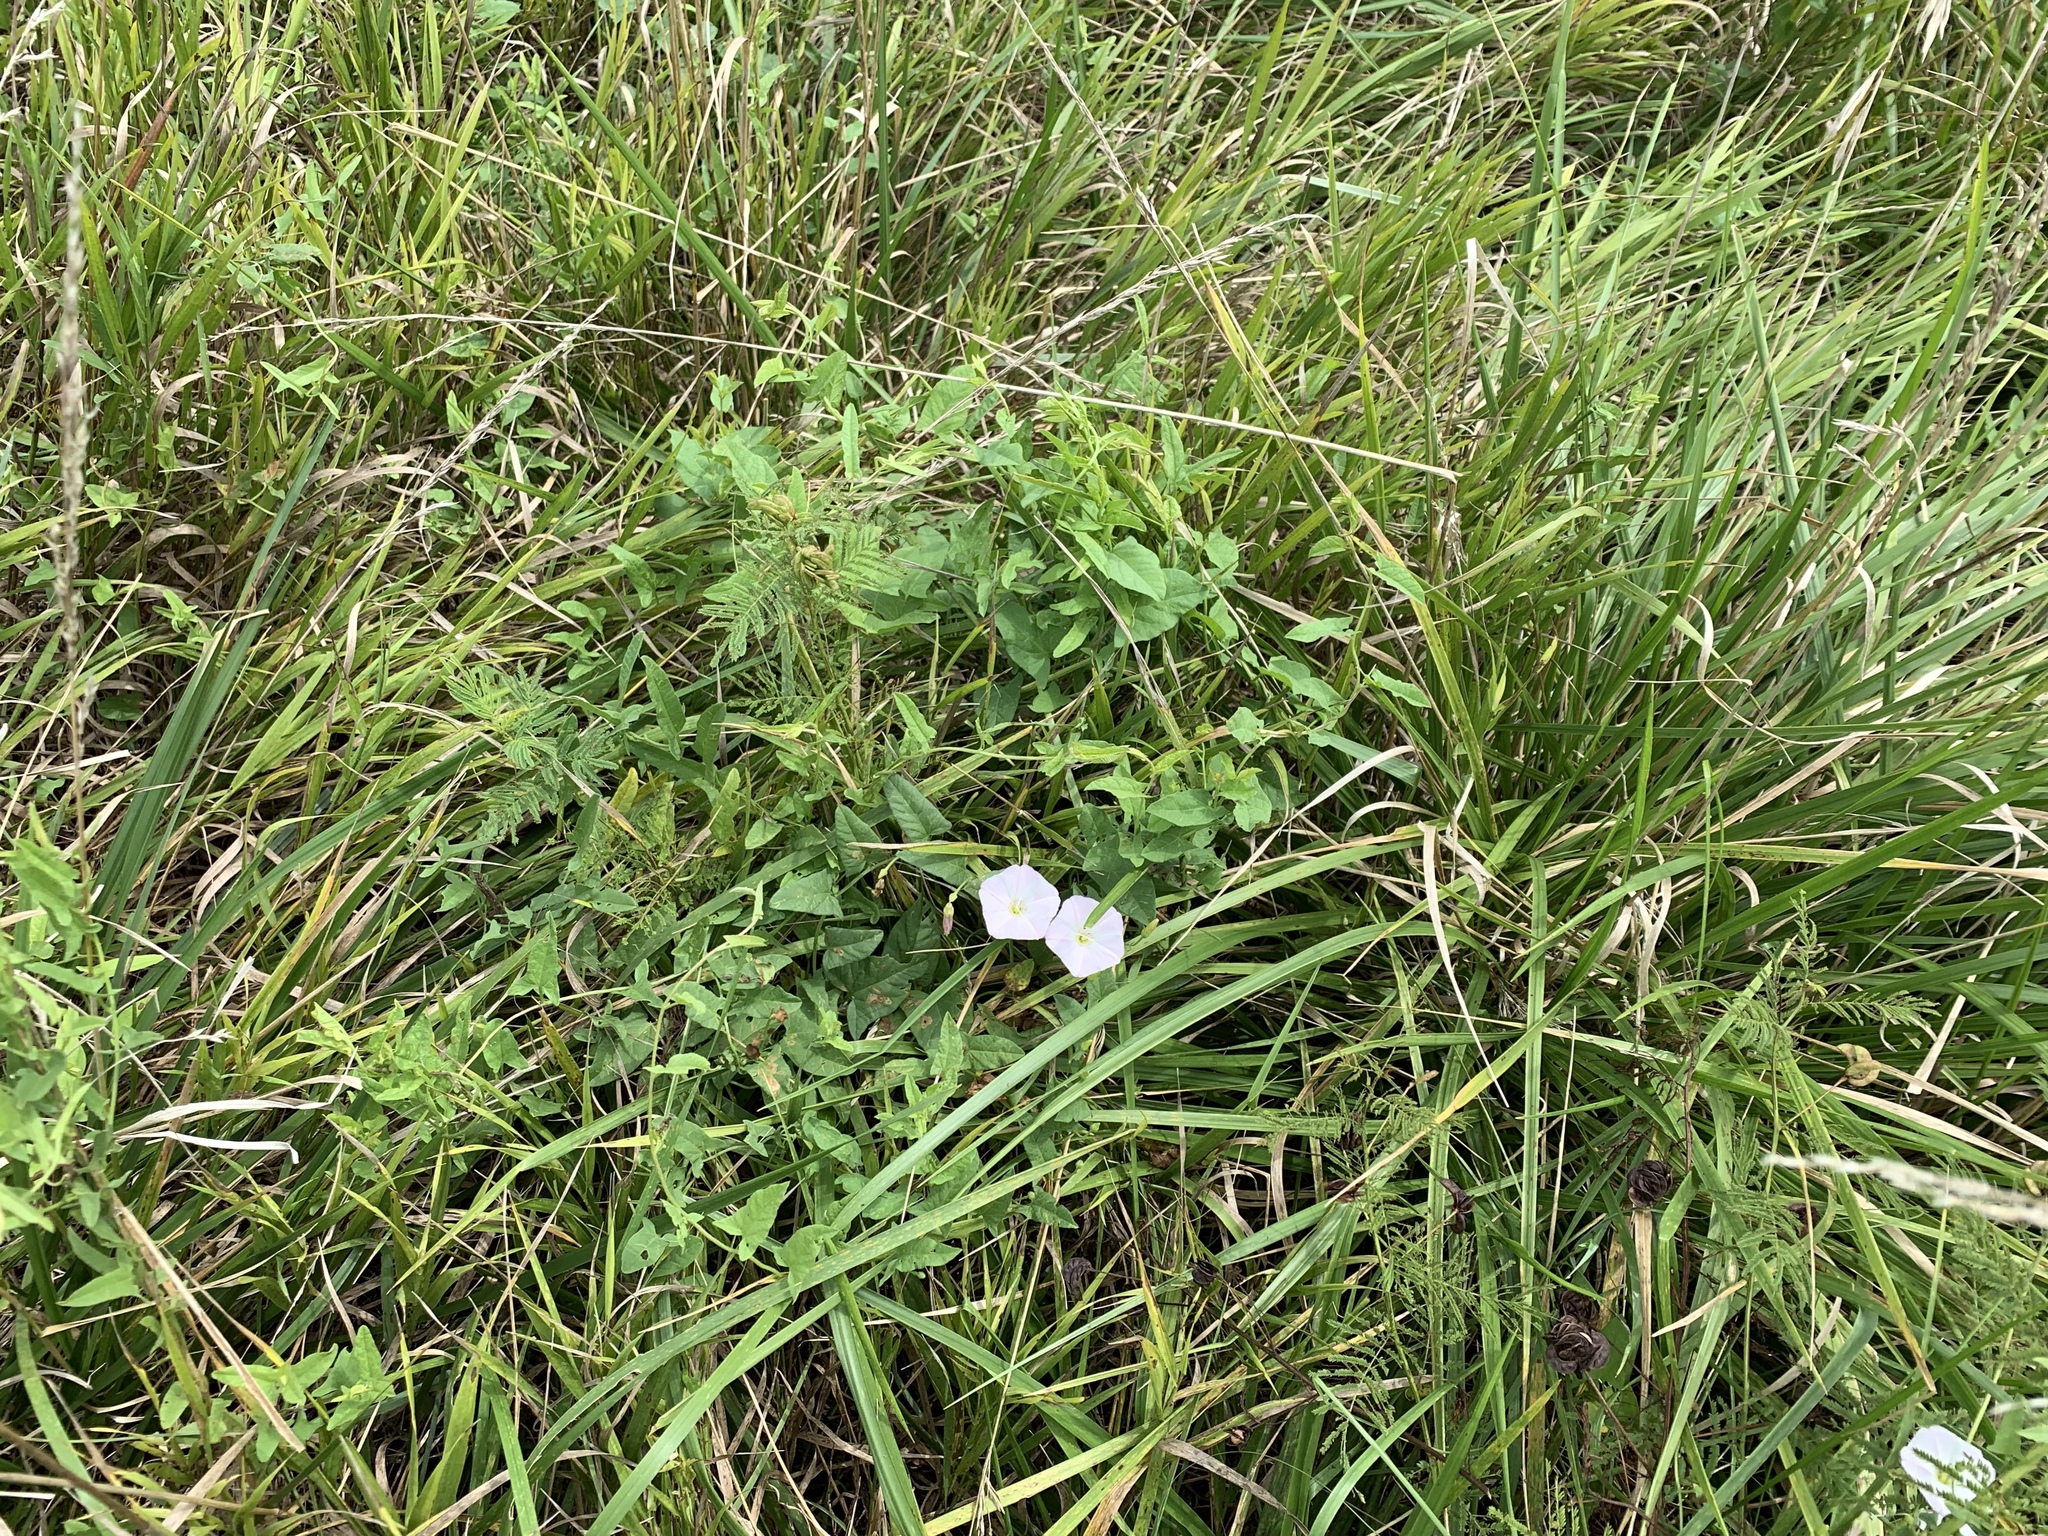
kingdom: Plantae
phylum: Tracheophyta
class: Magnoliopsida
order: Solanales
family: Convolvulaceae
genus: Convolvulus
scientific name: Convolvulus arvensis
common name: Field bindweed
